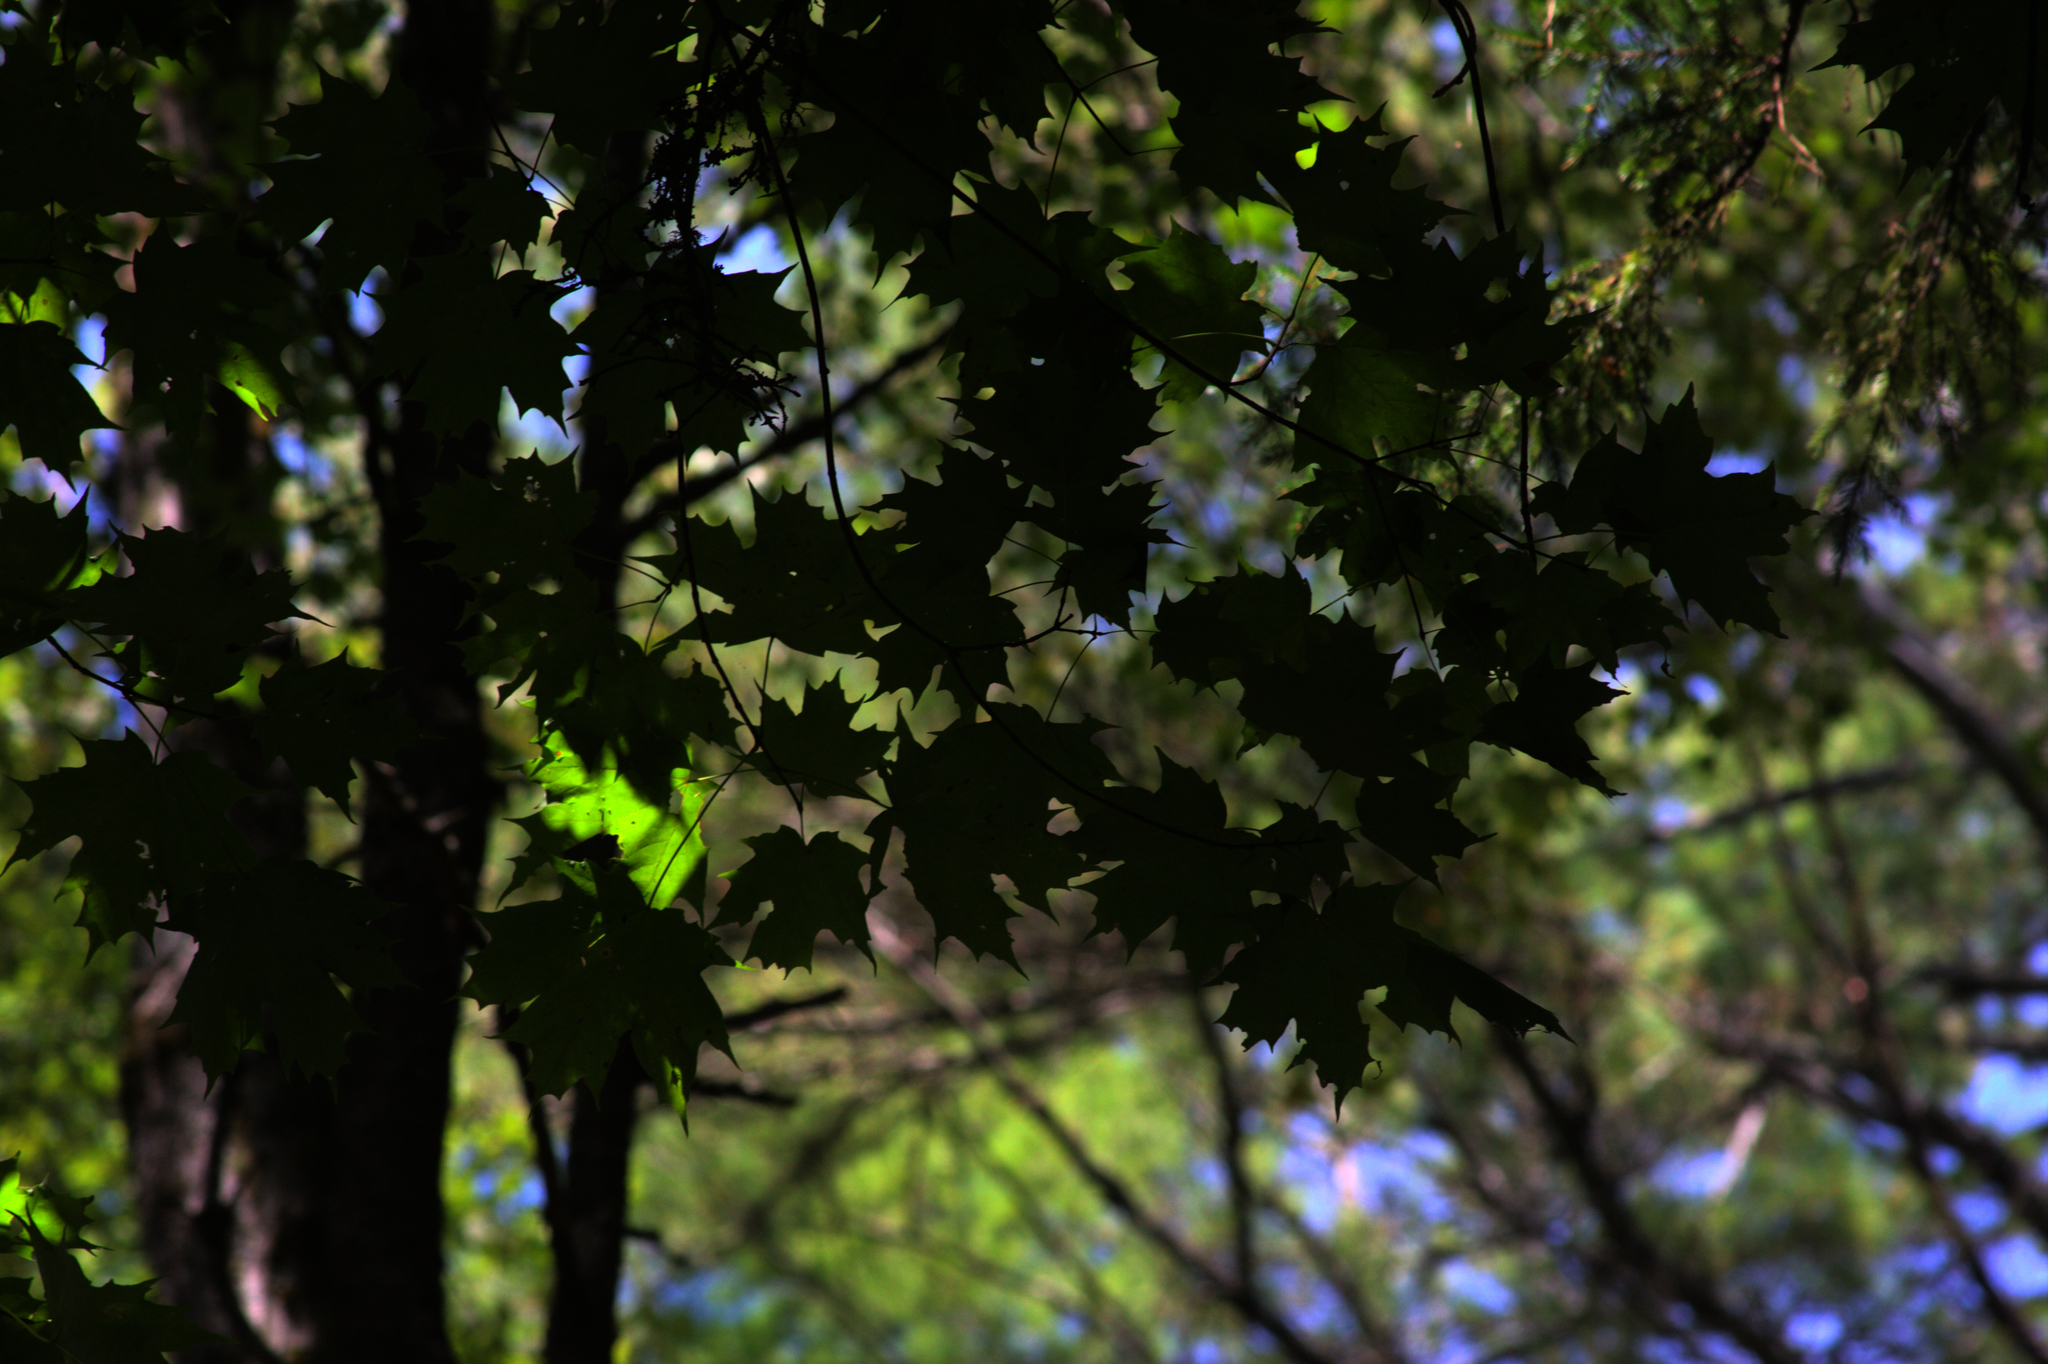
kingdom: Plantae
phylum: Tracheophyta
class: Magnoliopsida
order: Sapindales
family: Sapindaceae
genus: Acer
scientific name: Acer saccharum
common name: Sugar maple
